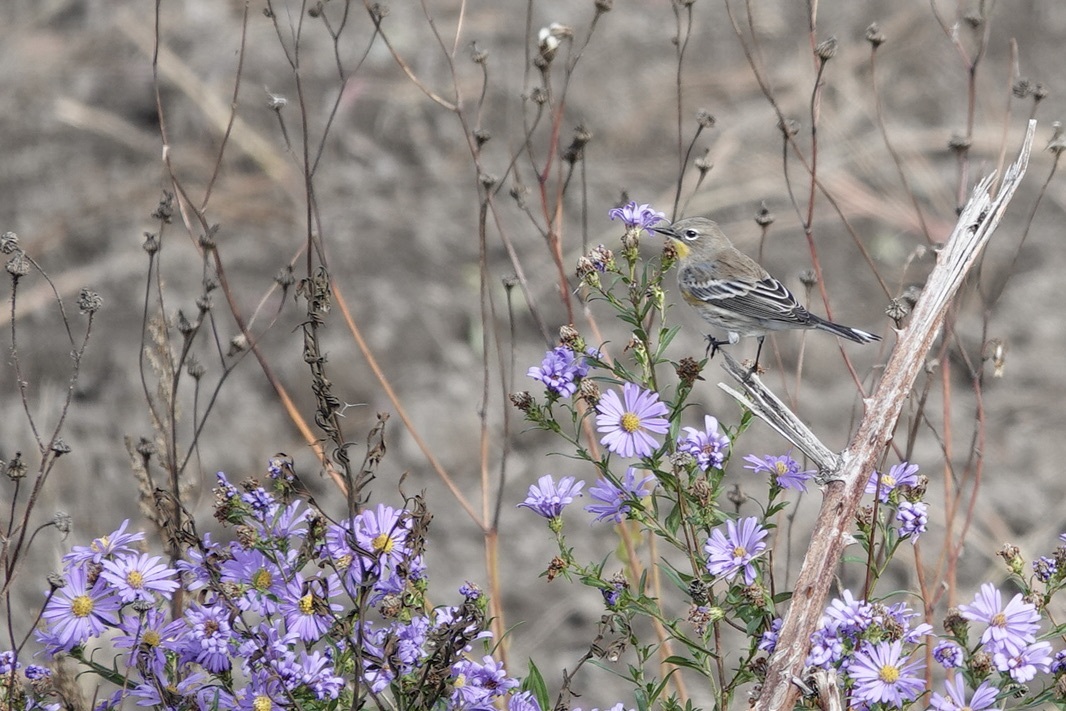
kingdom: Animalia
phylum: Chordata
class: Aves
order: Passeriformes
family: Parulidae
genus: Setophaga
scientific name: Setophaga coronata
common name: Myrtle warbler
